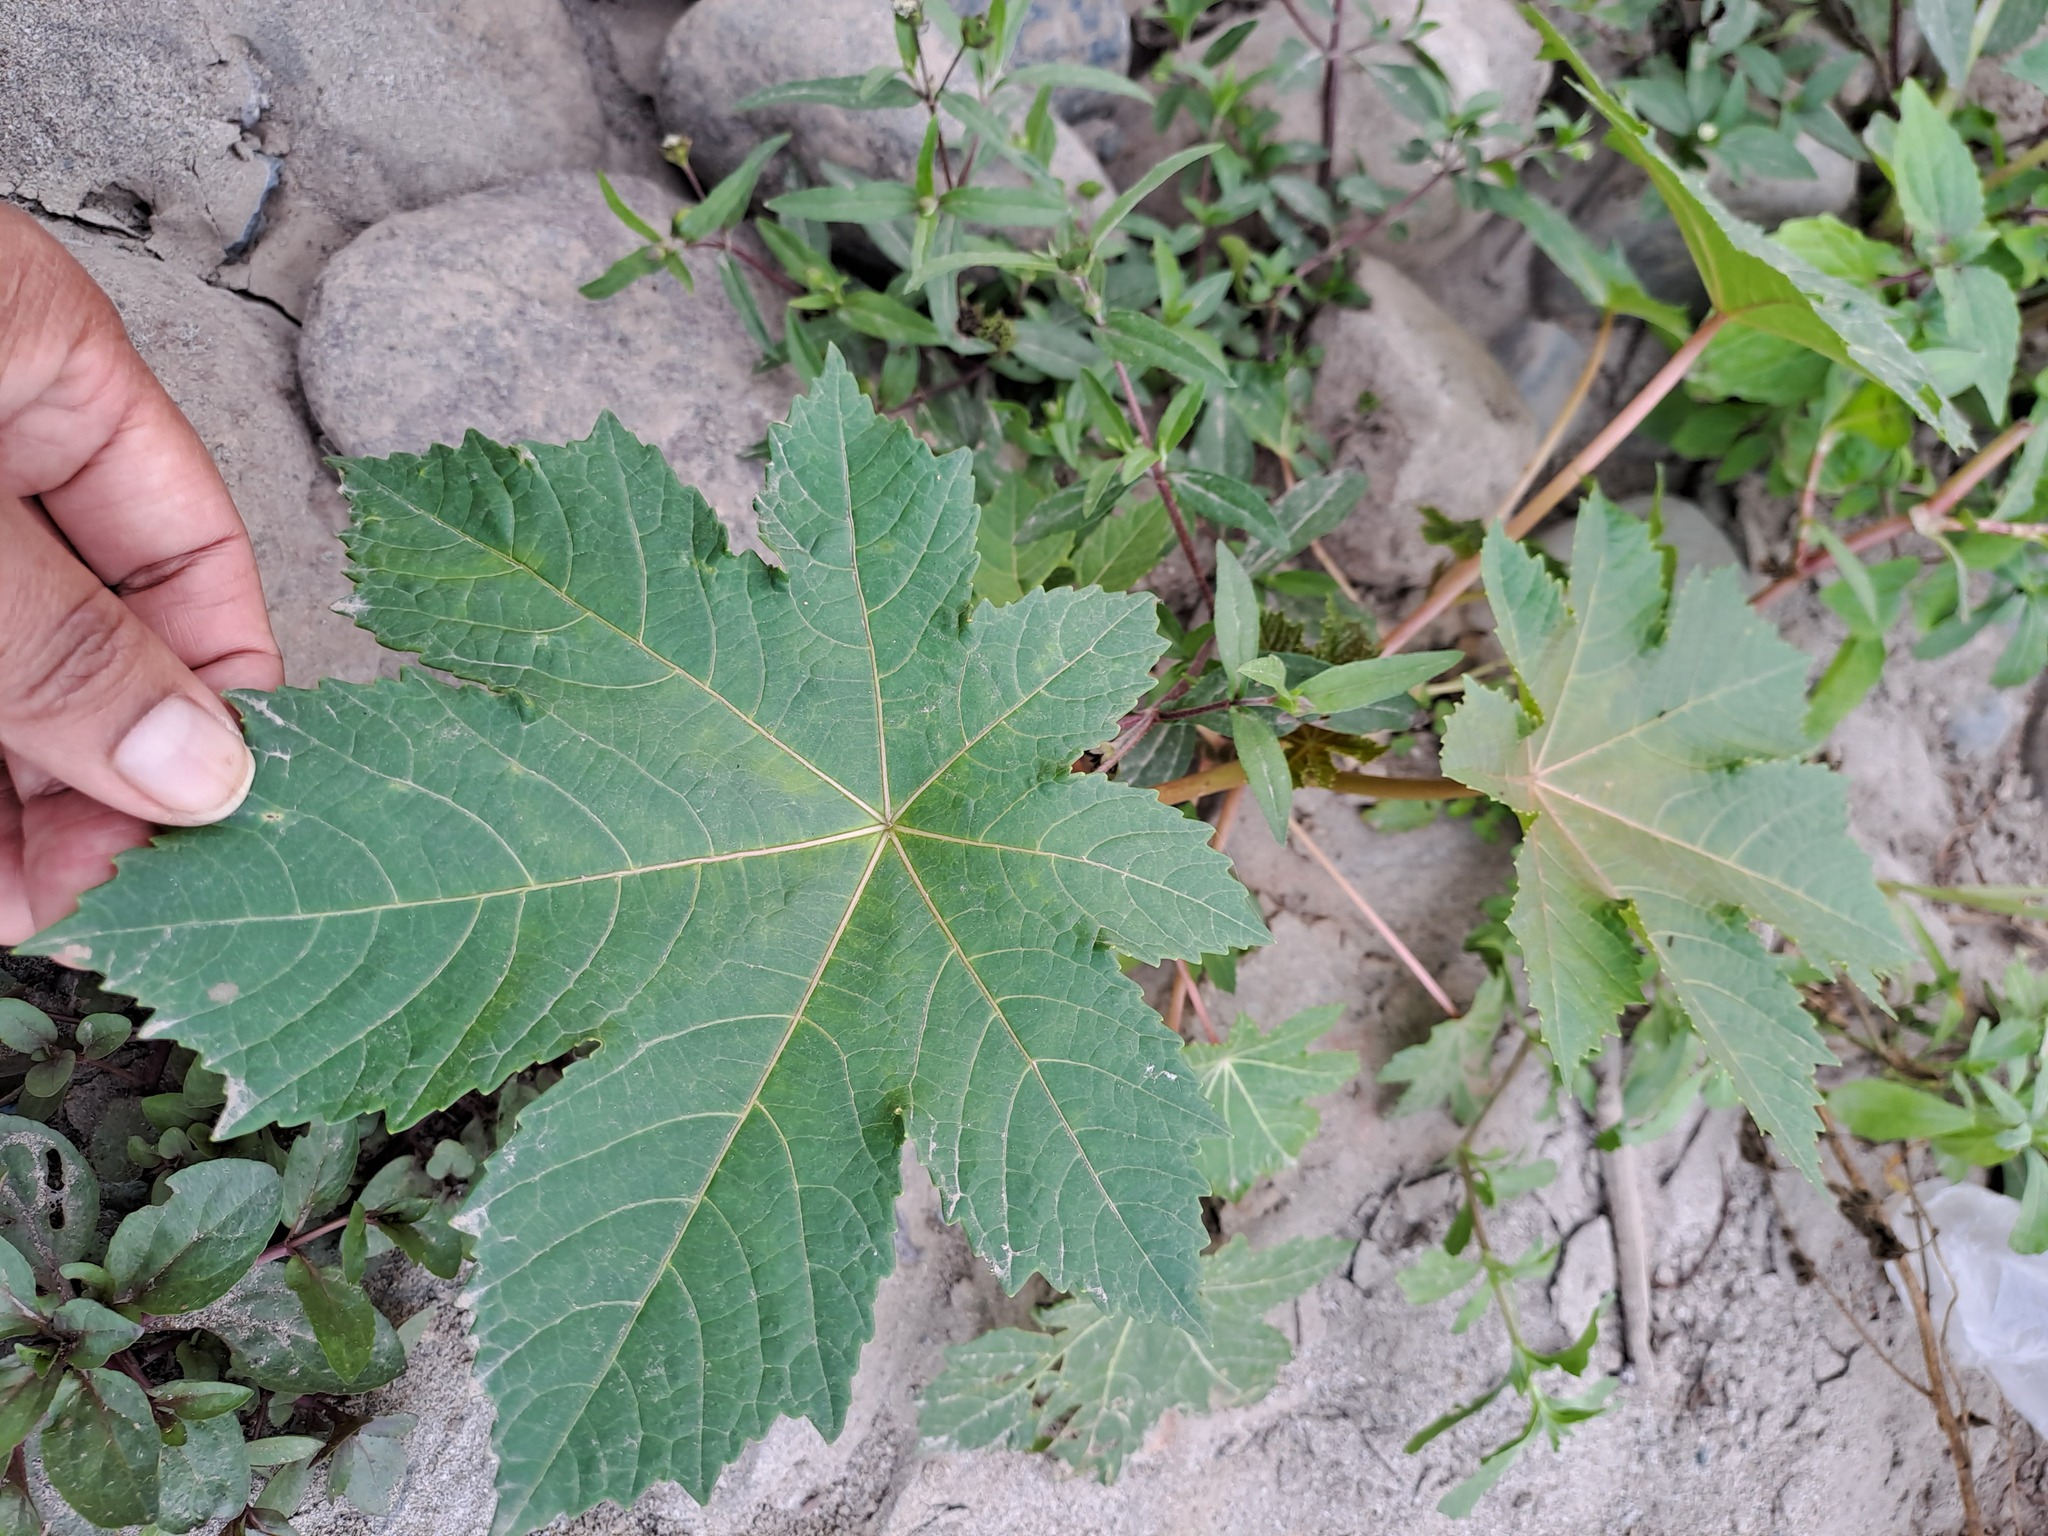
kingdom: Plantae
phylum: Tracheophyta
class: Magnoliopsida
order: Malpighiales
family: Euphorbiaceae
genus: Ricinus
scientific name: Ricinus communis
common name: Castor-oil-plant
